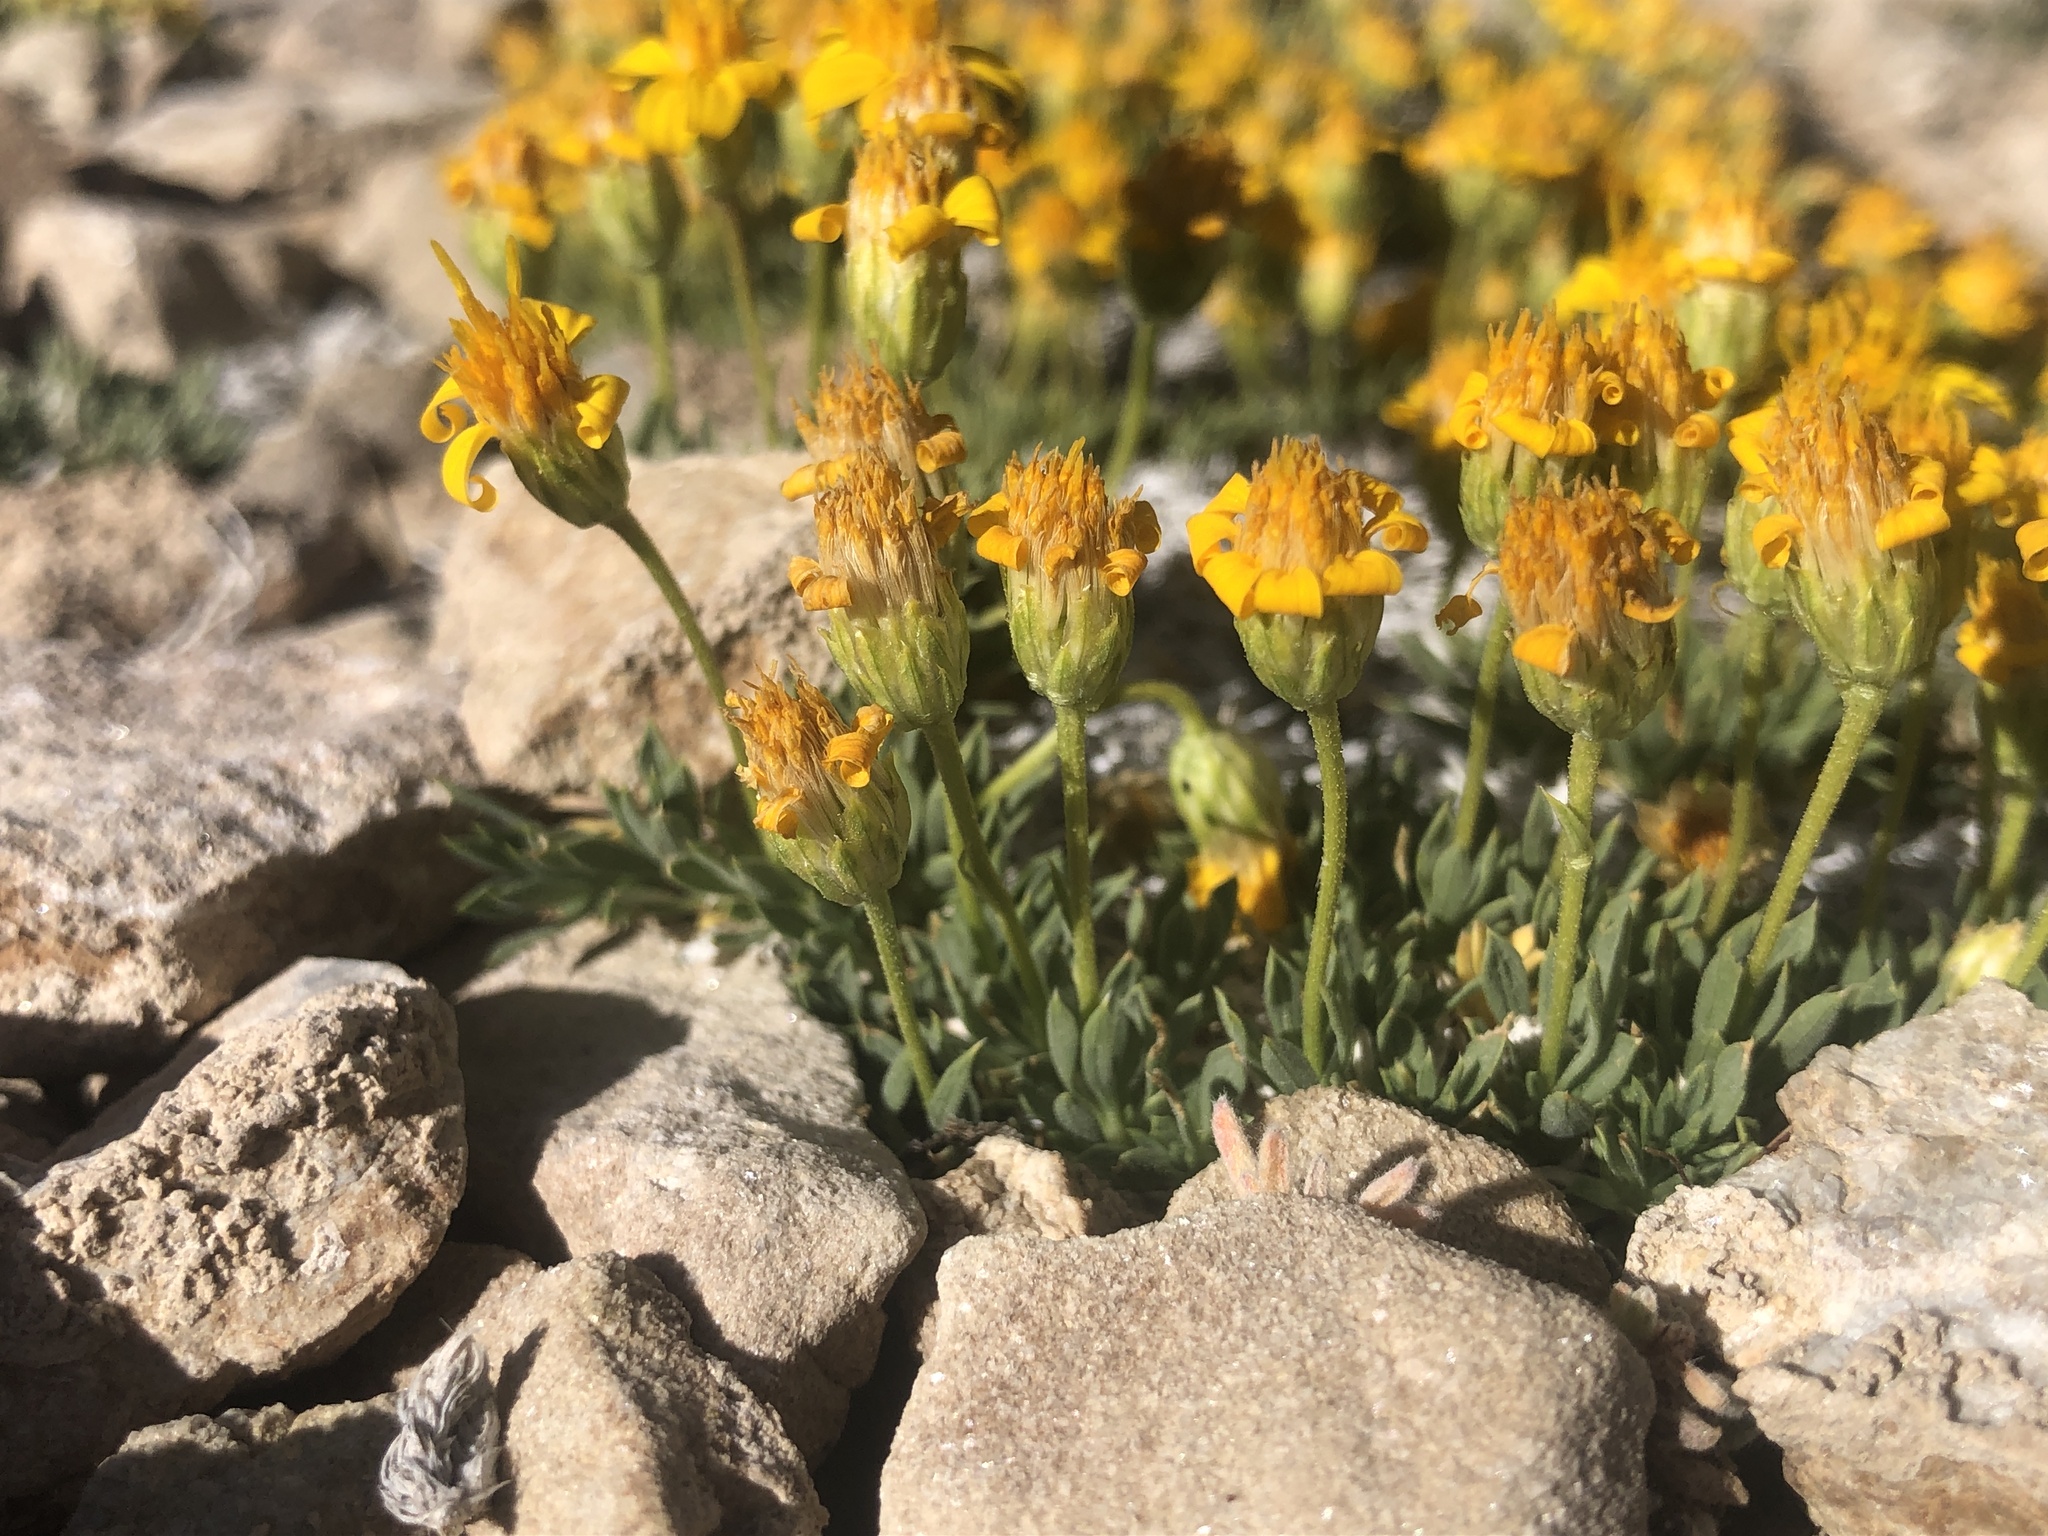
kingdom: Plantae
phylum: Tracheophyta
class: Magnoliopsida
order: Asterales
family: Asteraceae
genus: Stenotus
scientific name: Stenotus acaulis
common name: Stemless goldenweed
